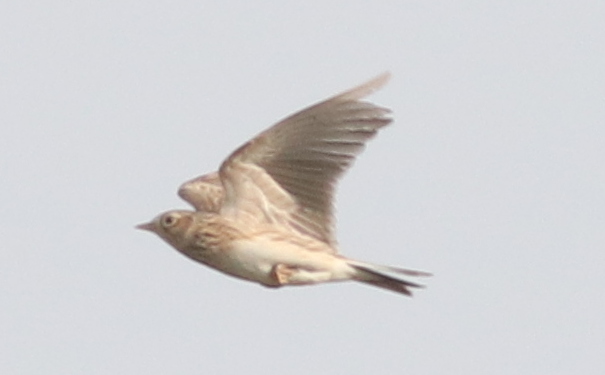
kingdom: Animalia
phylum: Chordata
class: Aves
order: Passeriformes
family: Alaudidae
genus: Alauda
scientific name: Alauda arvensis
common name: Eurasian skylark
